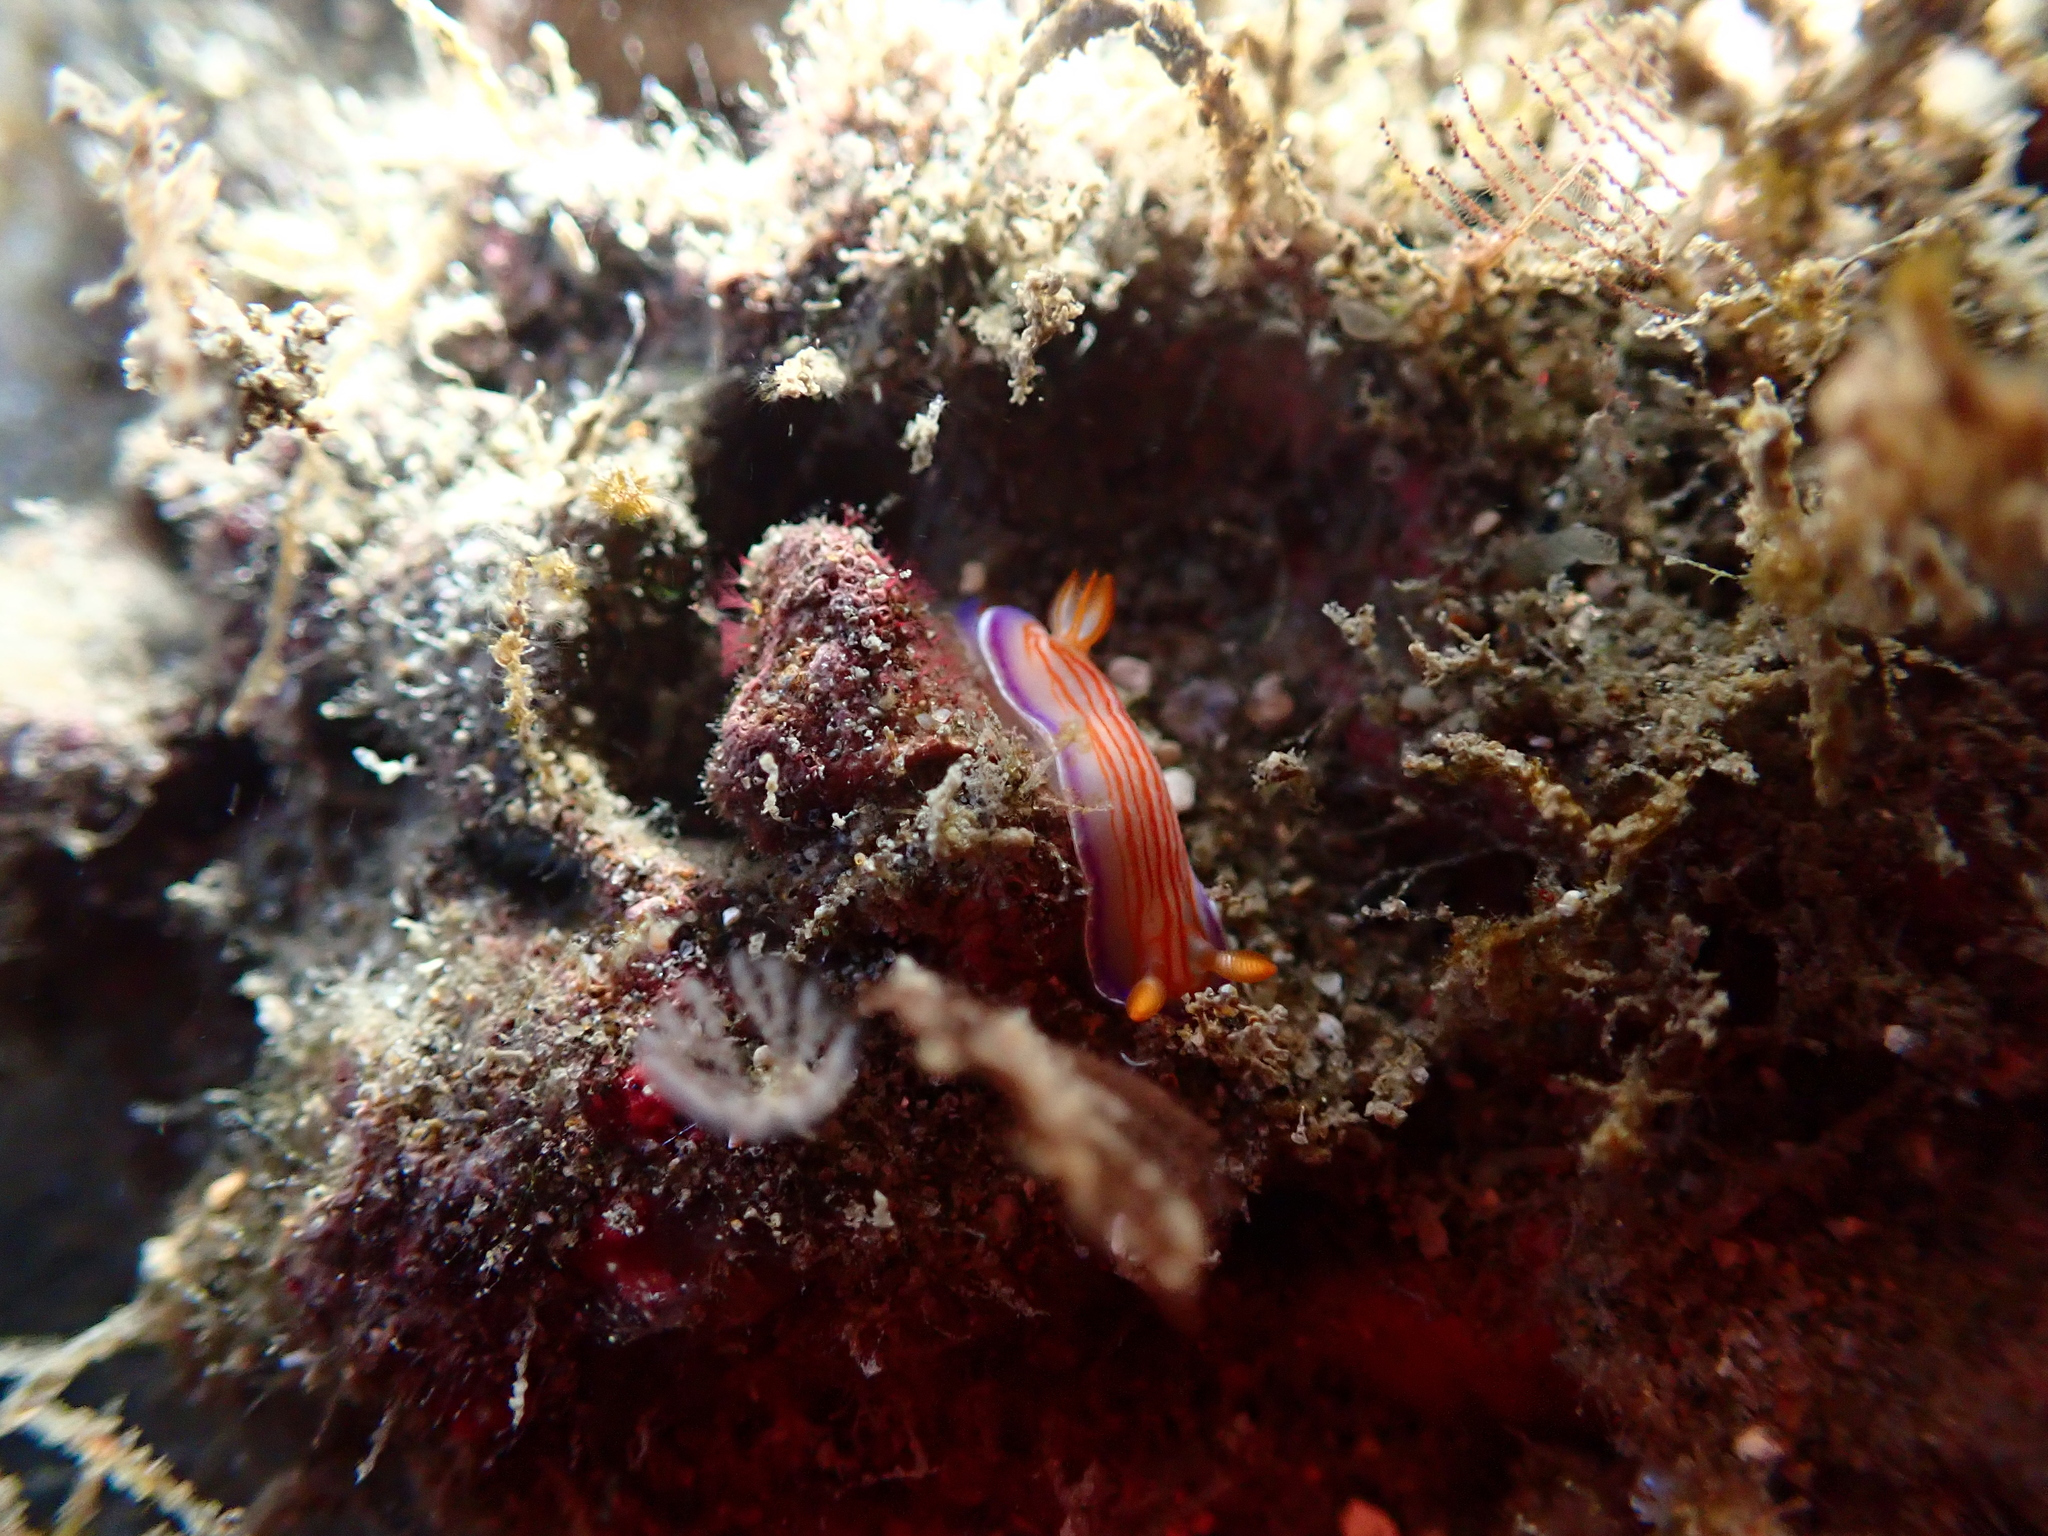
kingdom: Animalia
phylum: Mollusca
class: Gastropoda
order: Nudibranchia
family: Chromodorididae
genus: Hypselodoris
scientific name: Hypselodoris katherinae
